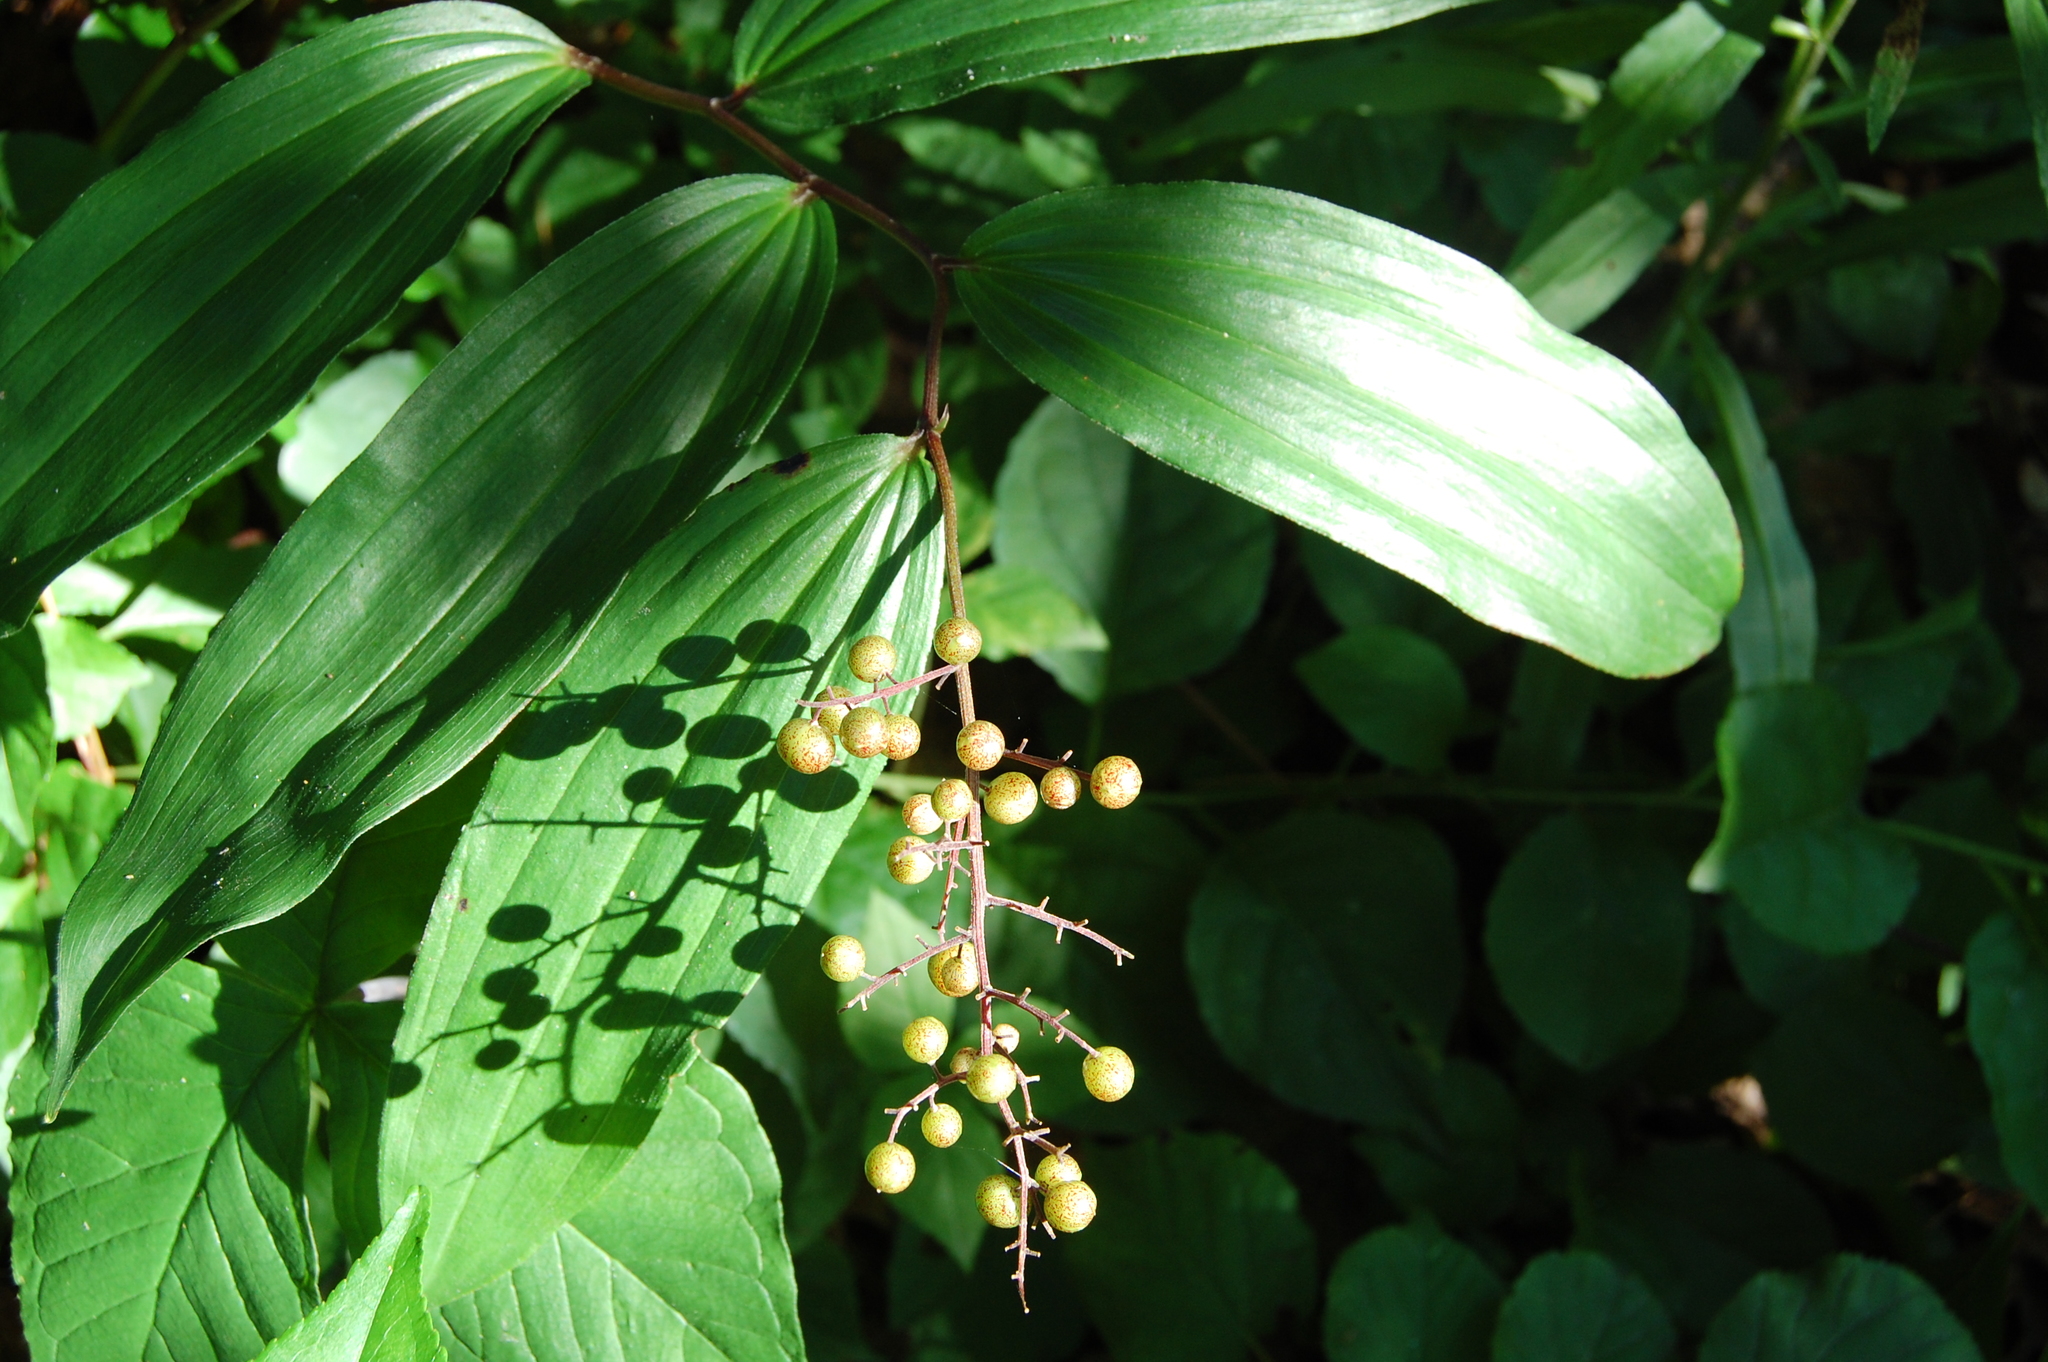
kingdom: Plantae
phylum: Tracheophyta
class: Liliopsida
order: Asparagales
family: Asparagaceae
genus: Maianthemum
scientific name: Maianthemum racemosum
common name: False spikenard
